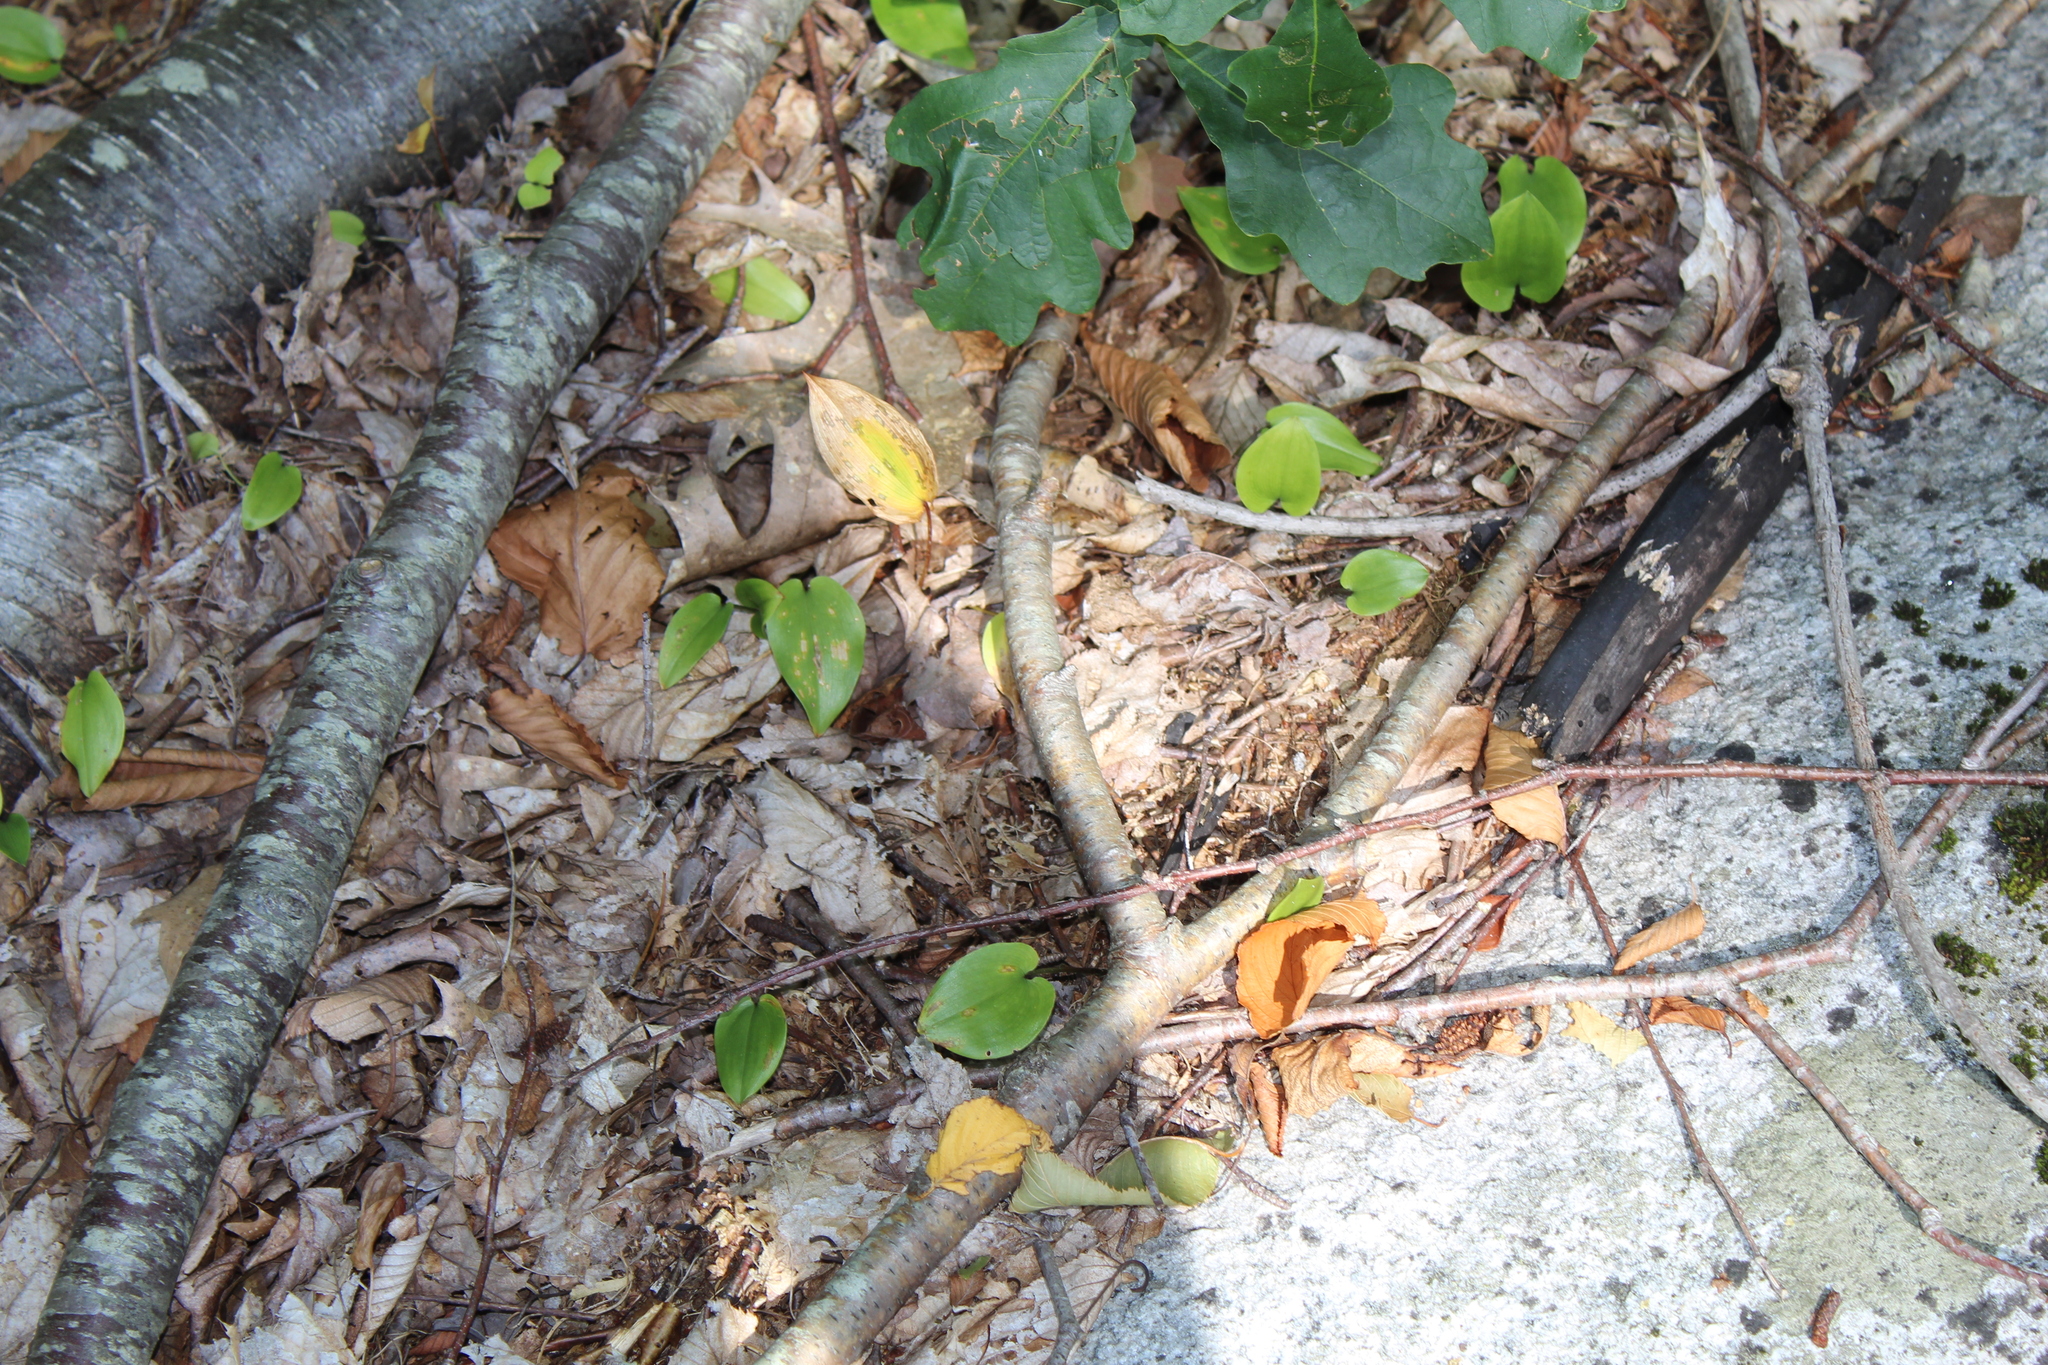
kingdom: Plantae
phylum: Tracheophyta
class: Liliopsida
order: Asparagales
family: Asparagaceae
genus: Maianthemum
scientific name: Maianthemum canadense
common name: False lily-of-the-valley
